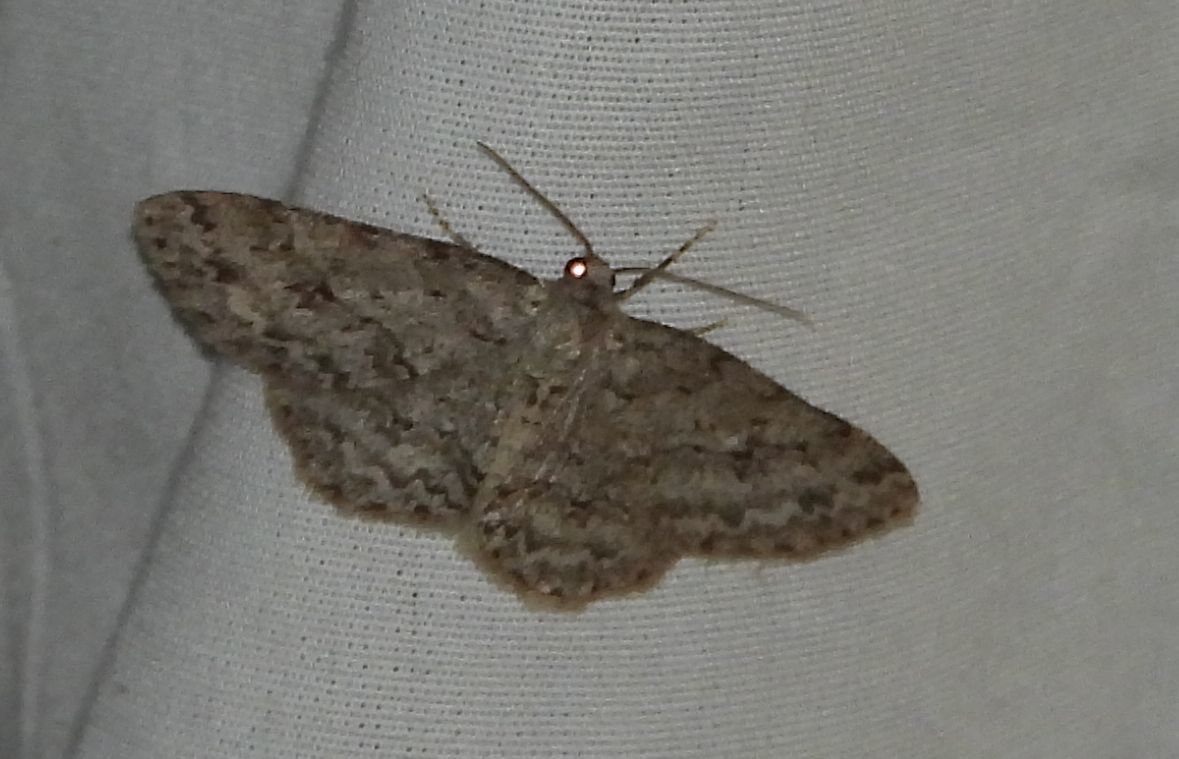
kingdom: Animalia
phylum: Arthropoda
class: Insecta
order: Lepidoptera
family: Geometridae
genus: Ectropis
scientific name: Ectropis crepuscularia
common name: Engrailed
